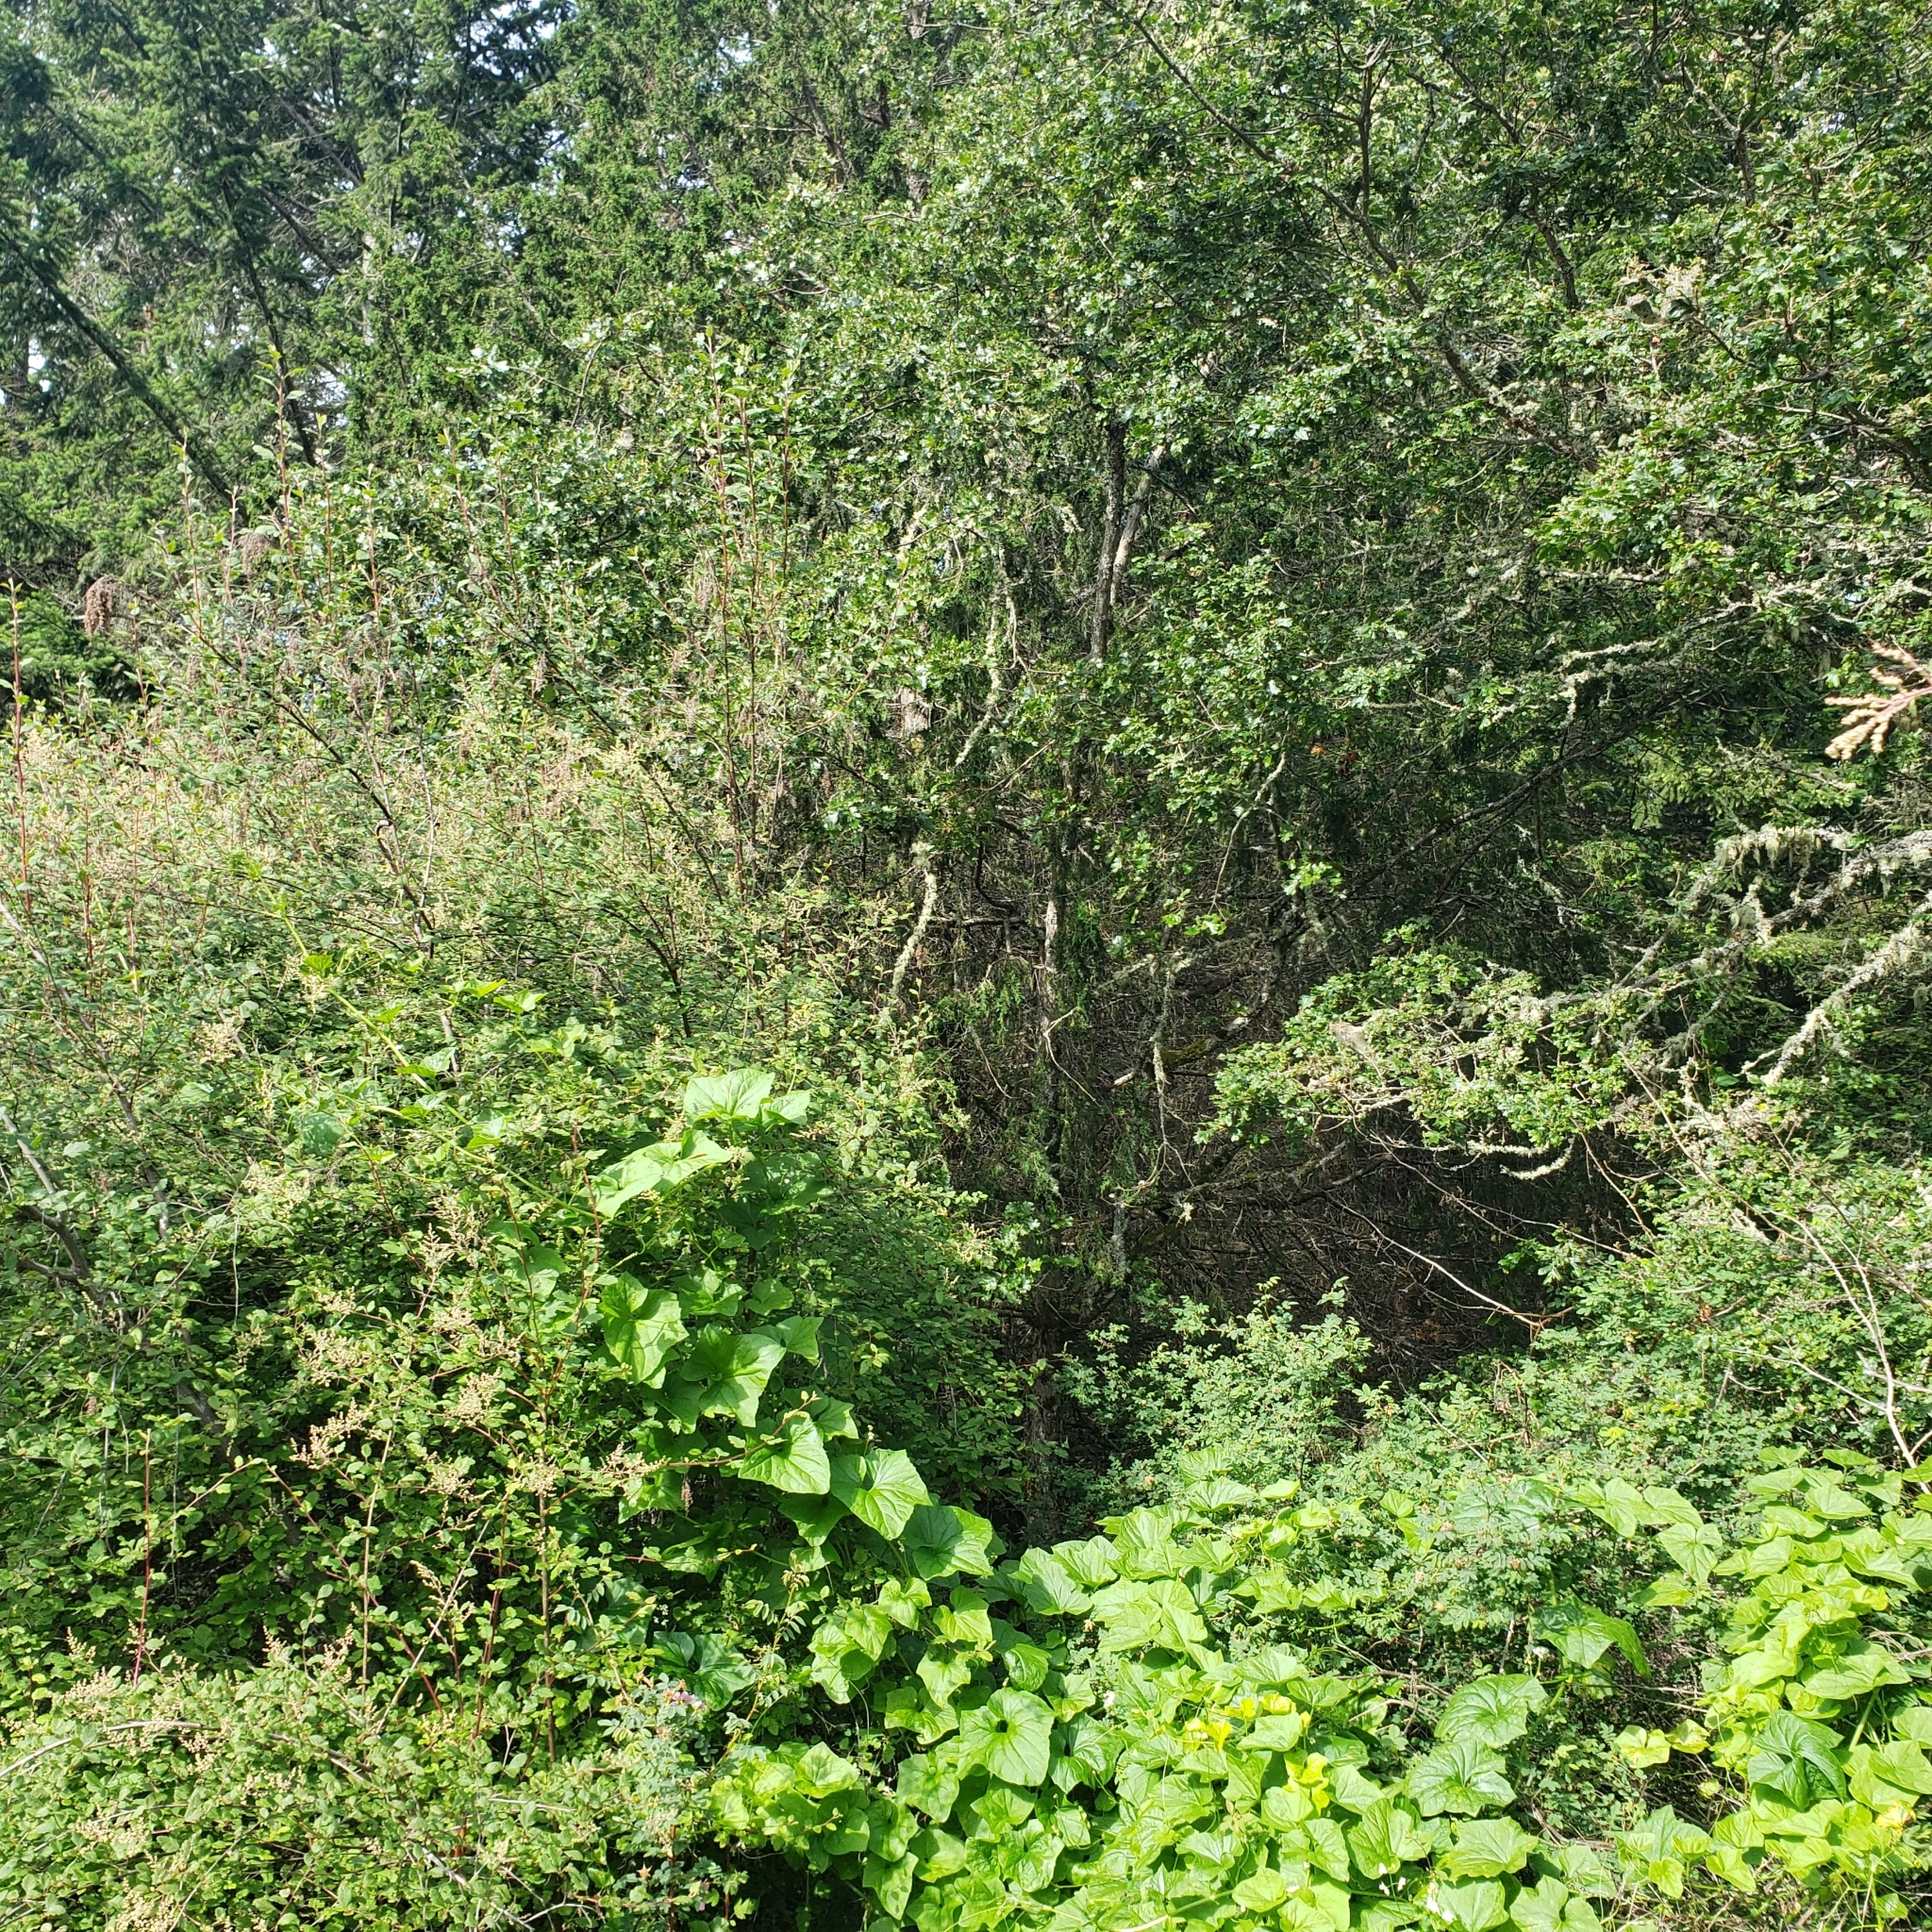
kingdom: Plantae
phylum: Tracheophyta
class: Magnoliopsida
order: Fagales
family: Fagaceae
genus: Quercus
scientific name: Quercus garryana
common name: Garry oak
